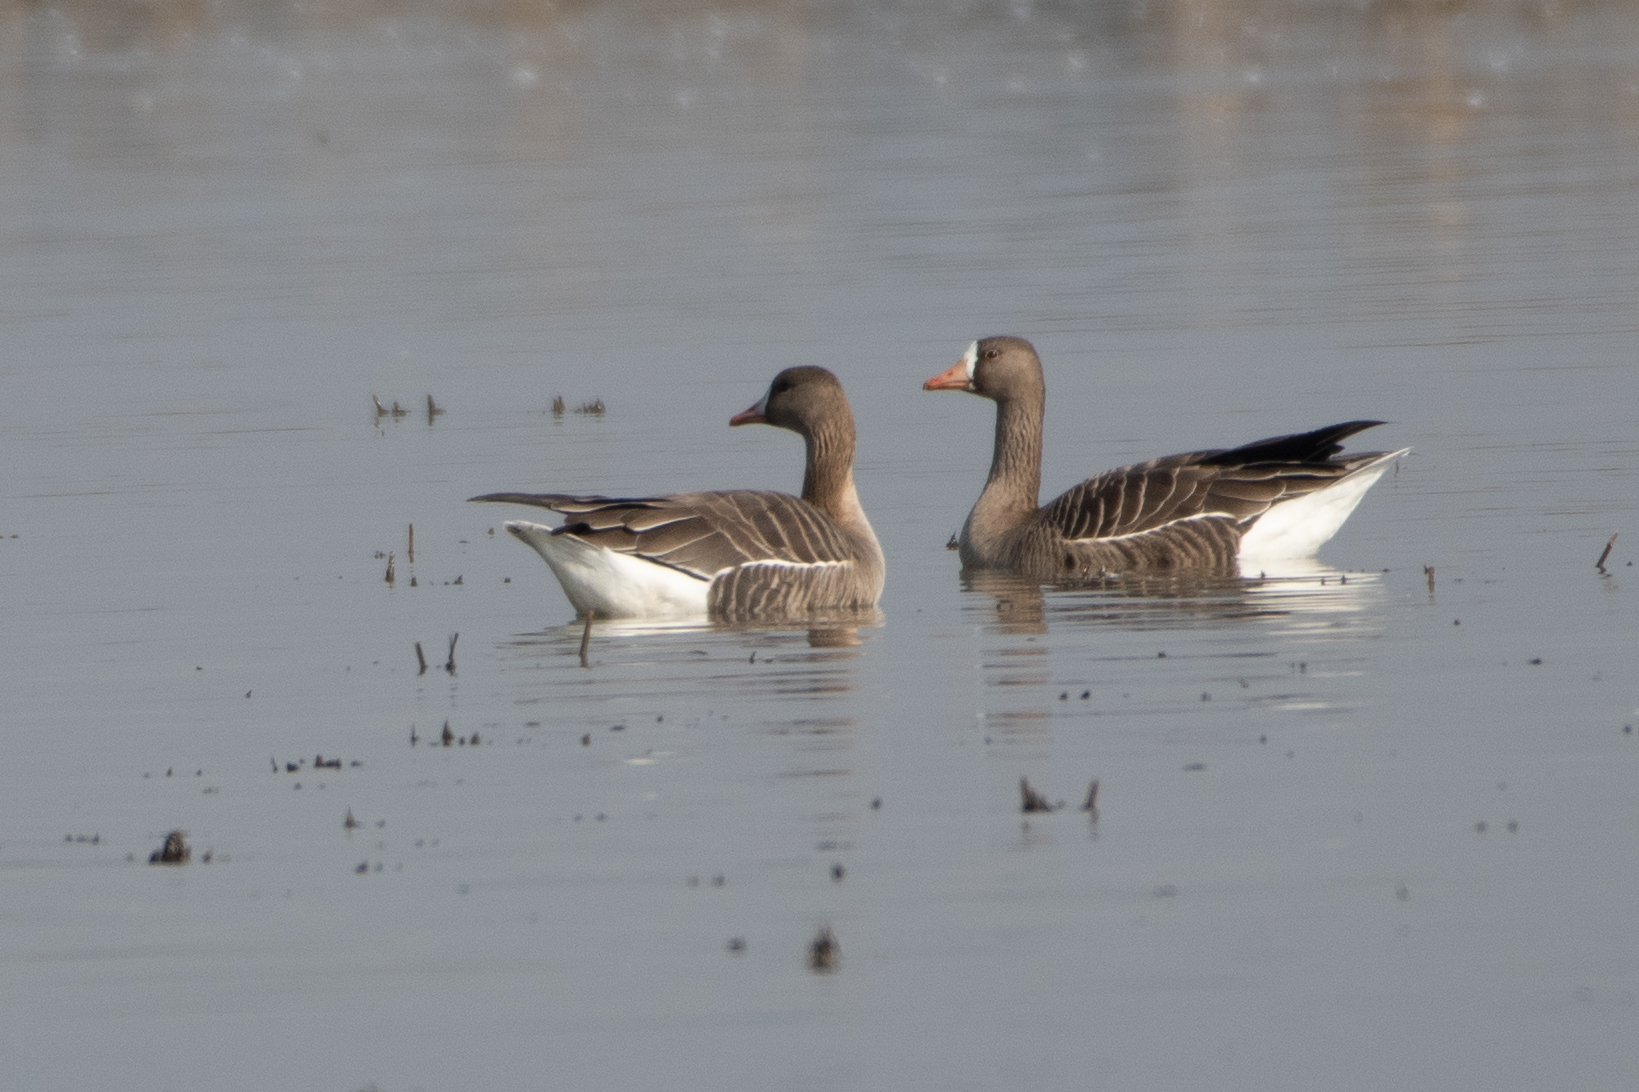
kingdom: Animalia
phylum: Chordata
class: Aves
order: Anseriformes
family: Anatidae
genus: Anser
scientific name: Anser albifrons
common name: Greater white-fronted goose
